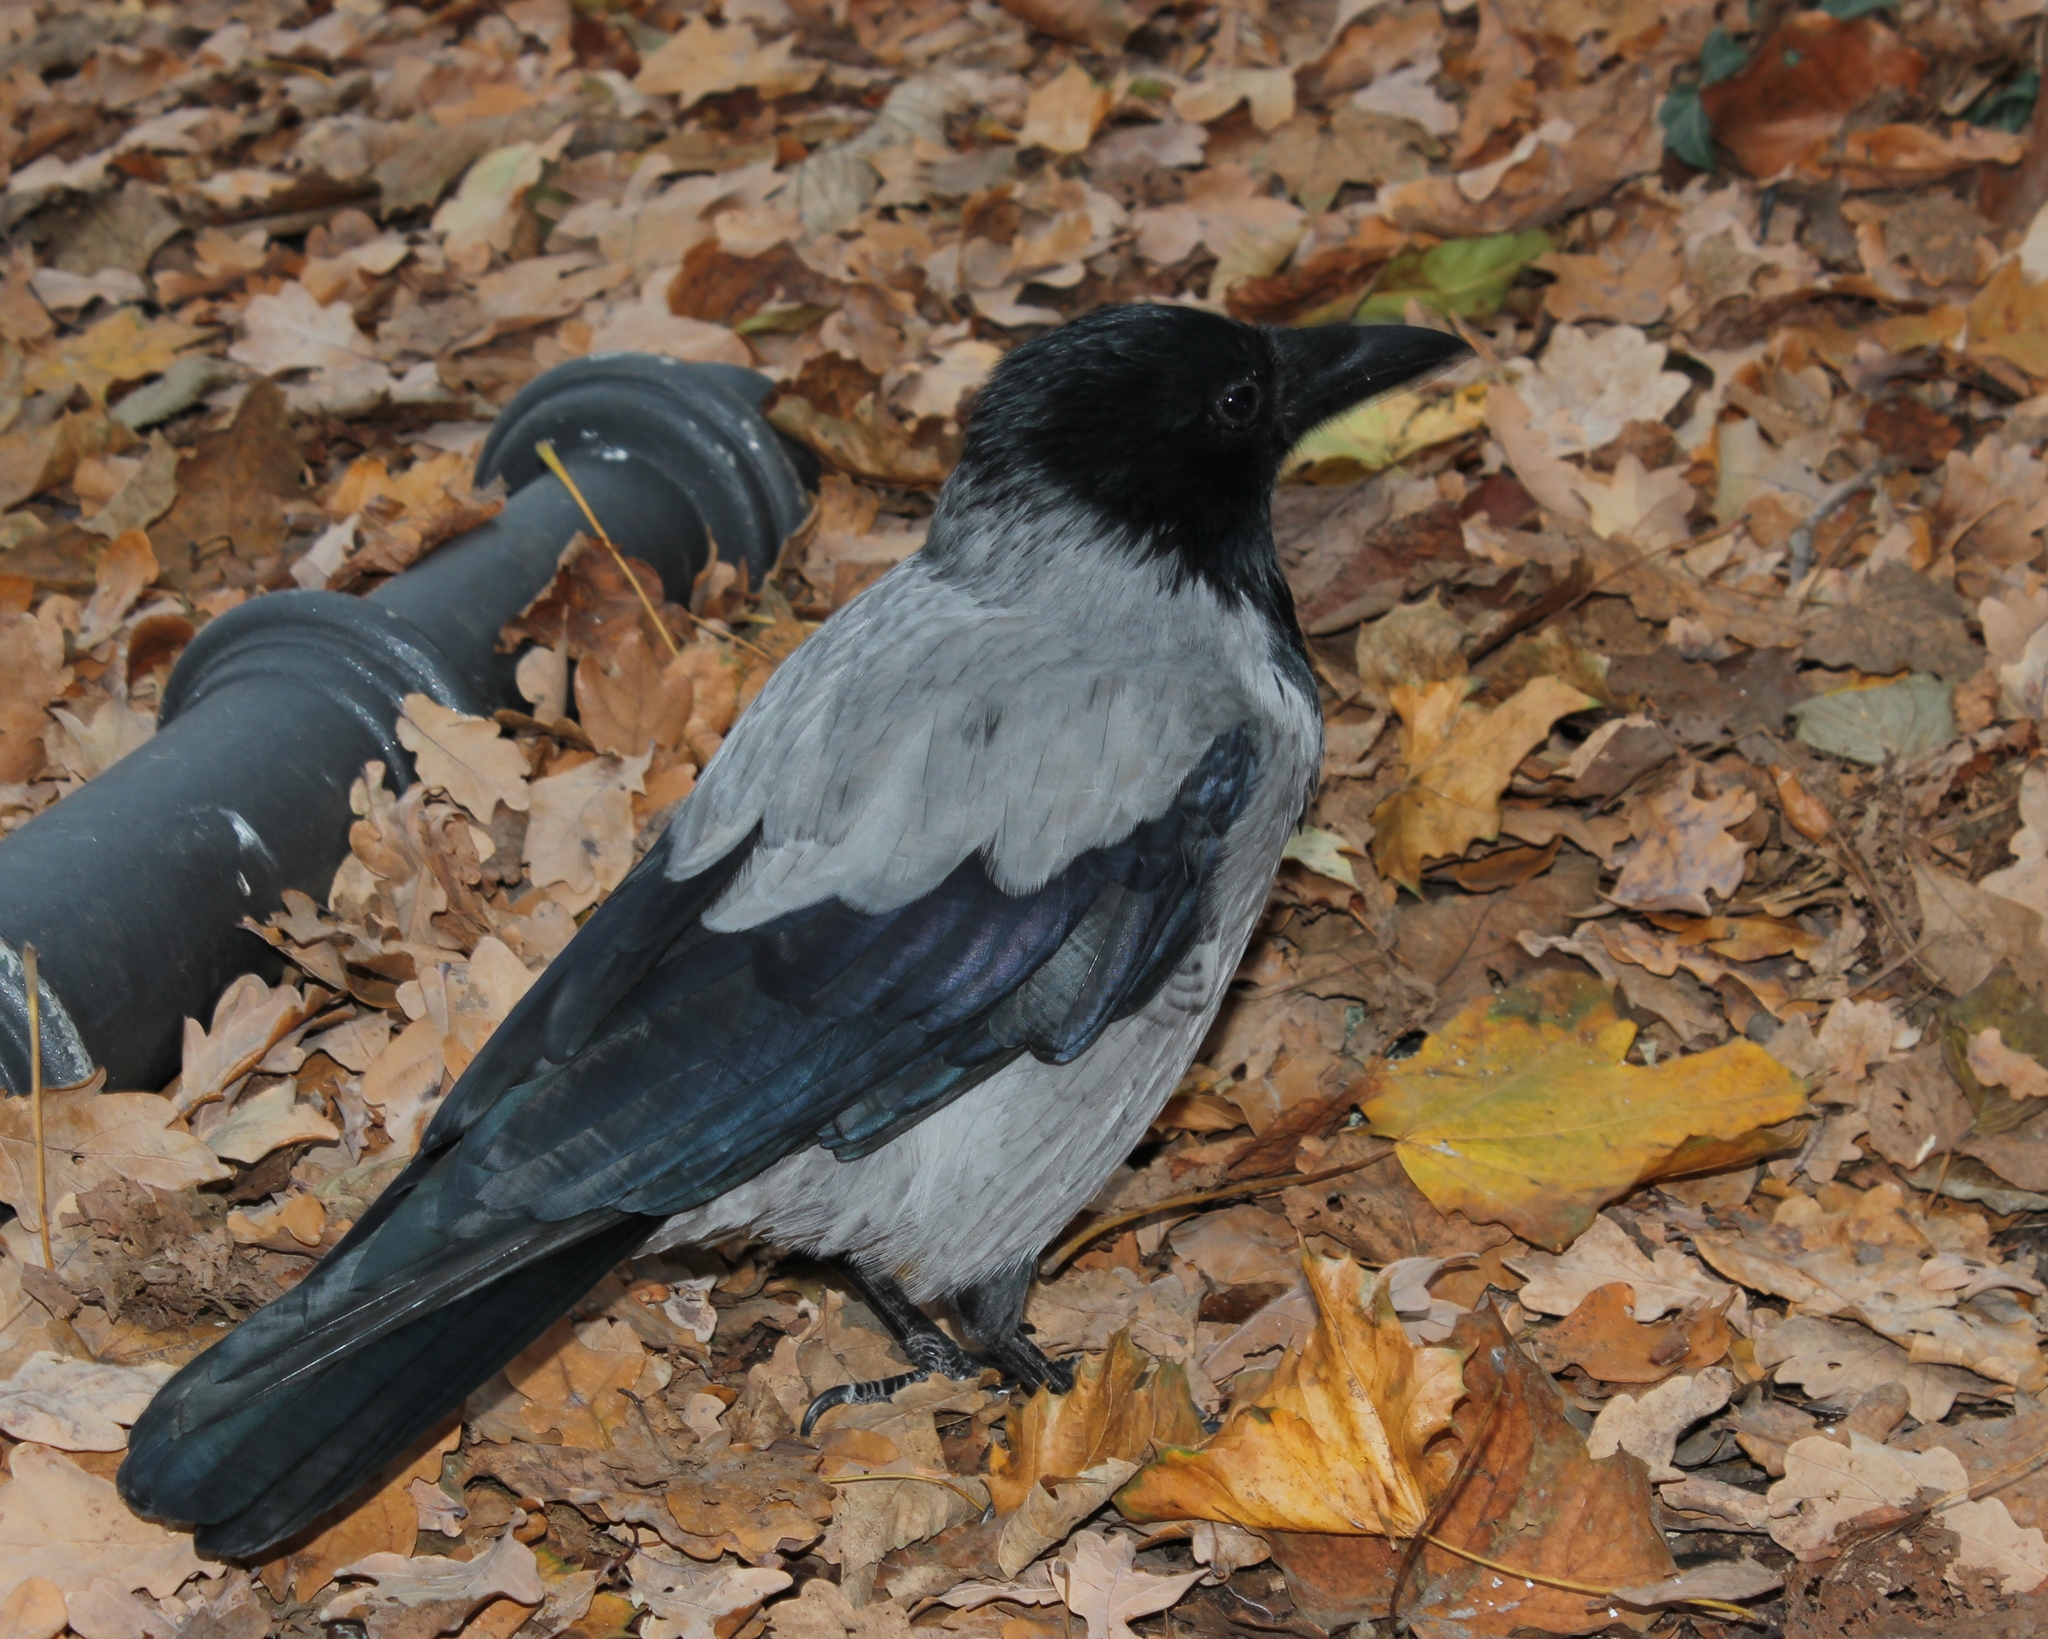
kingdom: Animalia
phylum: Chordata
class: Aves
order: Passeriformes
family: Corvidae
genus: Corvus
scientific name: Corvus cornix
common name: Hooded crow
